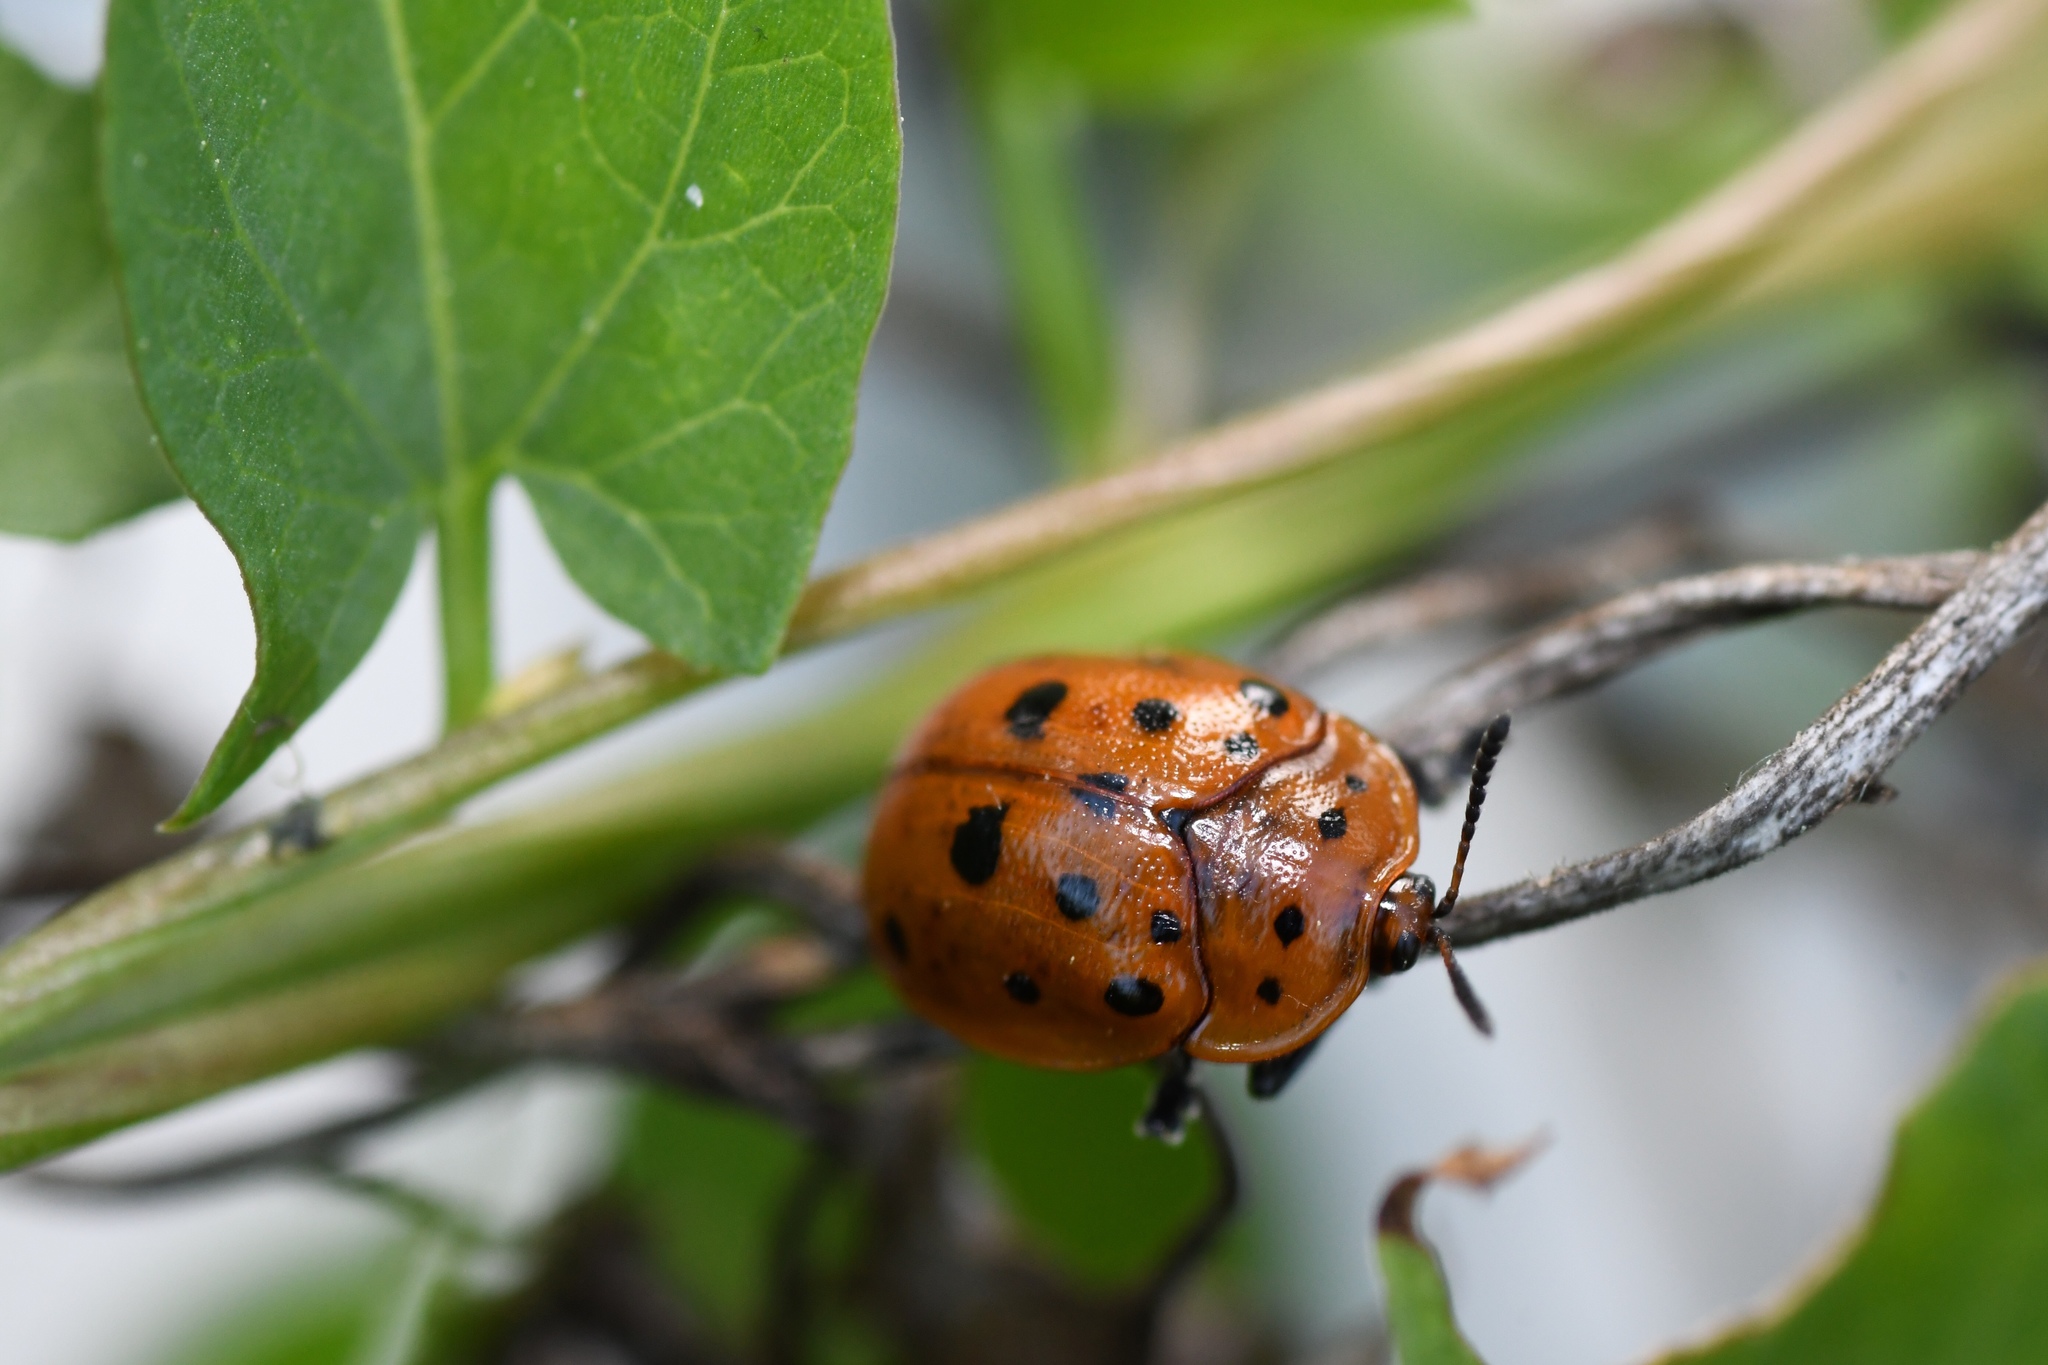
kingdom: Animalia
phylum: Arthropoda
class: Insecta
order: Coleoptera
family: Chrysomelidae
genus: Chelymorpha
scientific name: Chelymorpha cassidea
